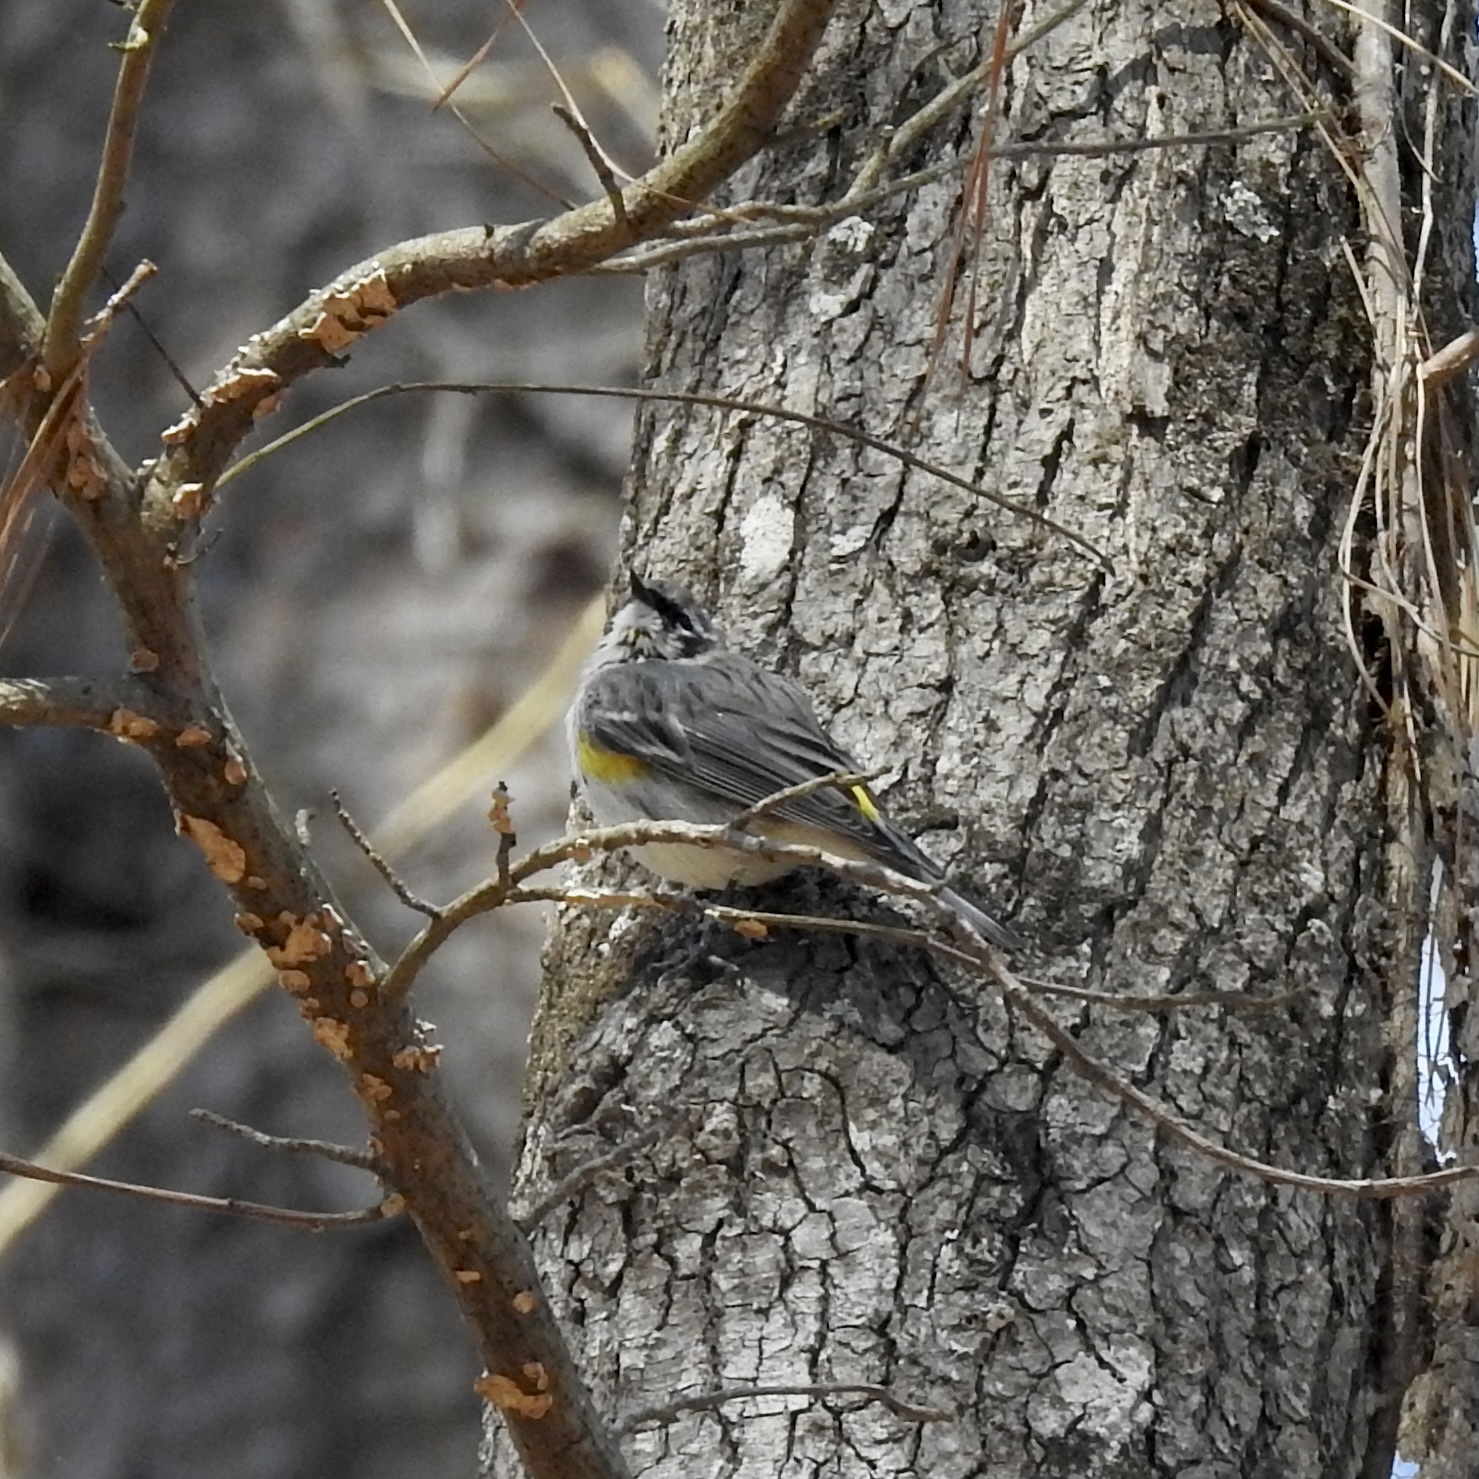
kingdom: Animalia
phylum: Chordata
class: Aves
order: Passeriformes
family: Parulidae
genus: Setophaga
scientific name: Setophaga coronata
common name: Myrtle warbler
